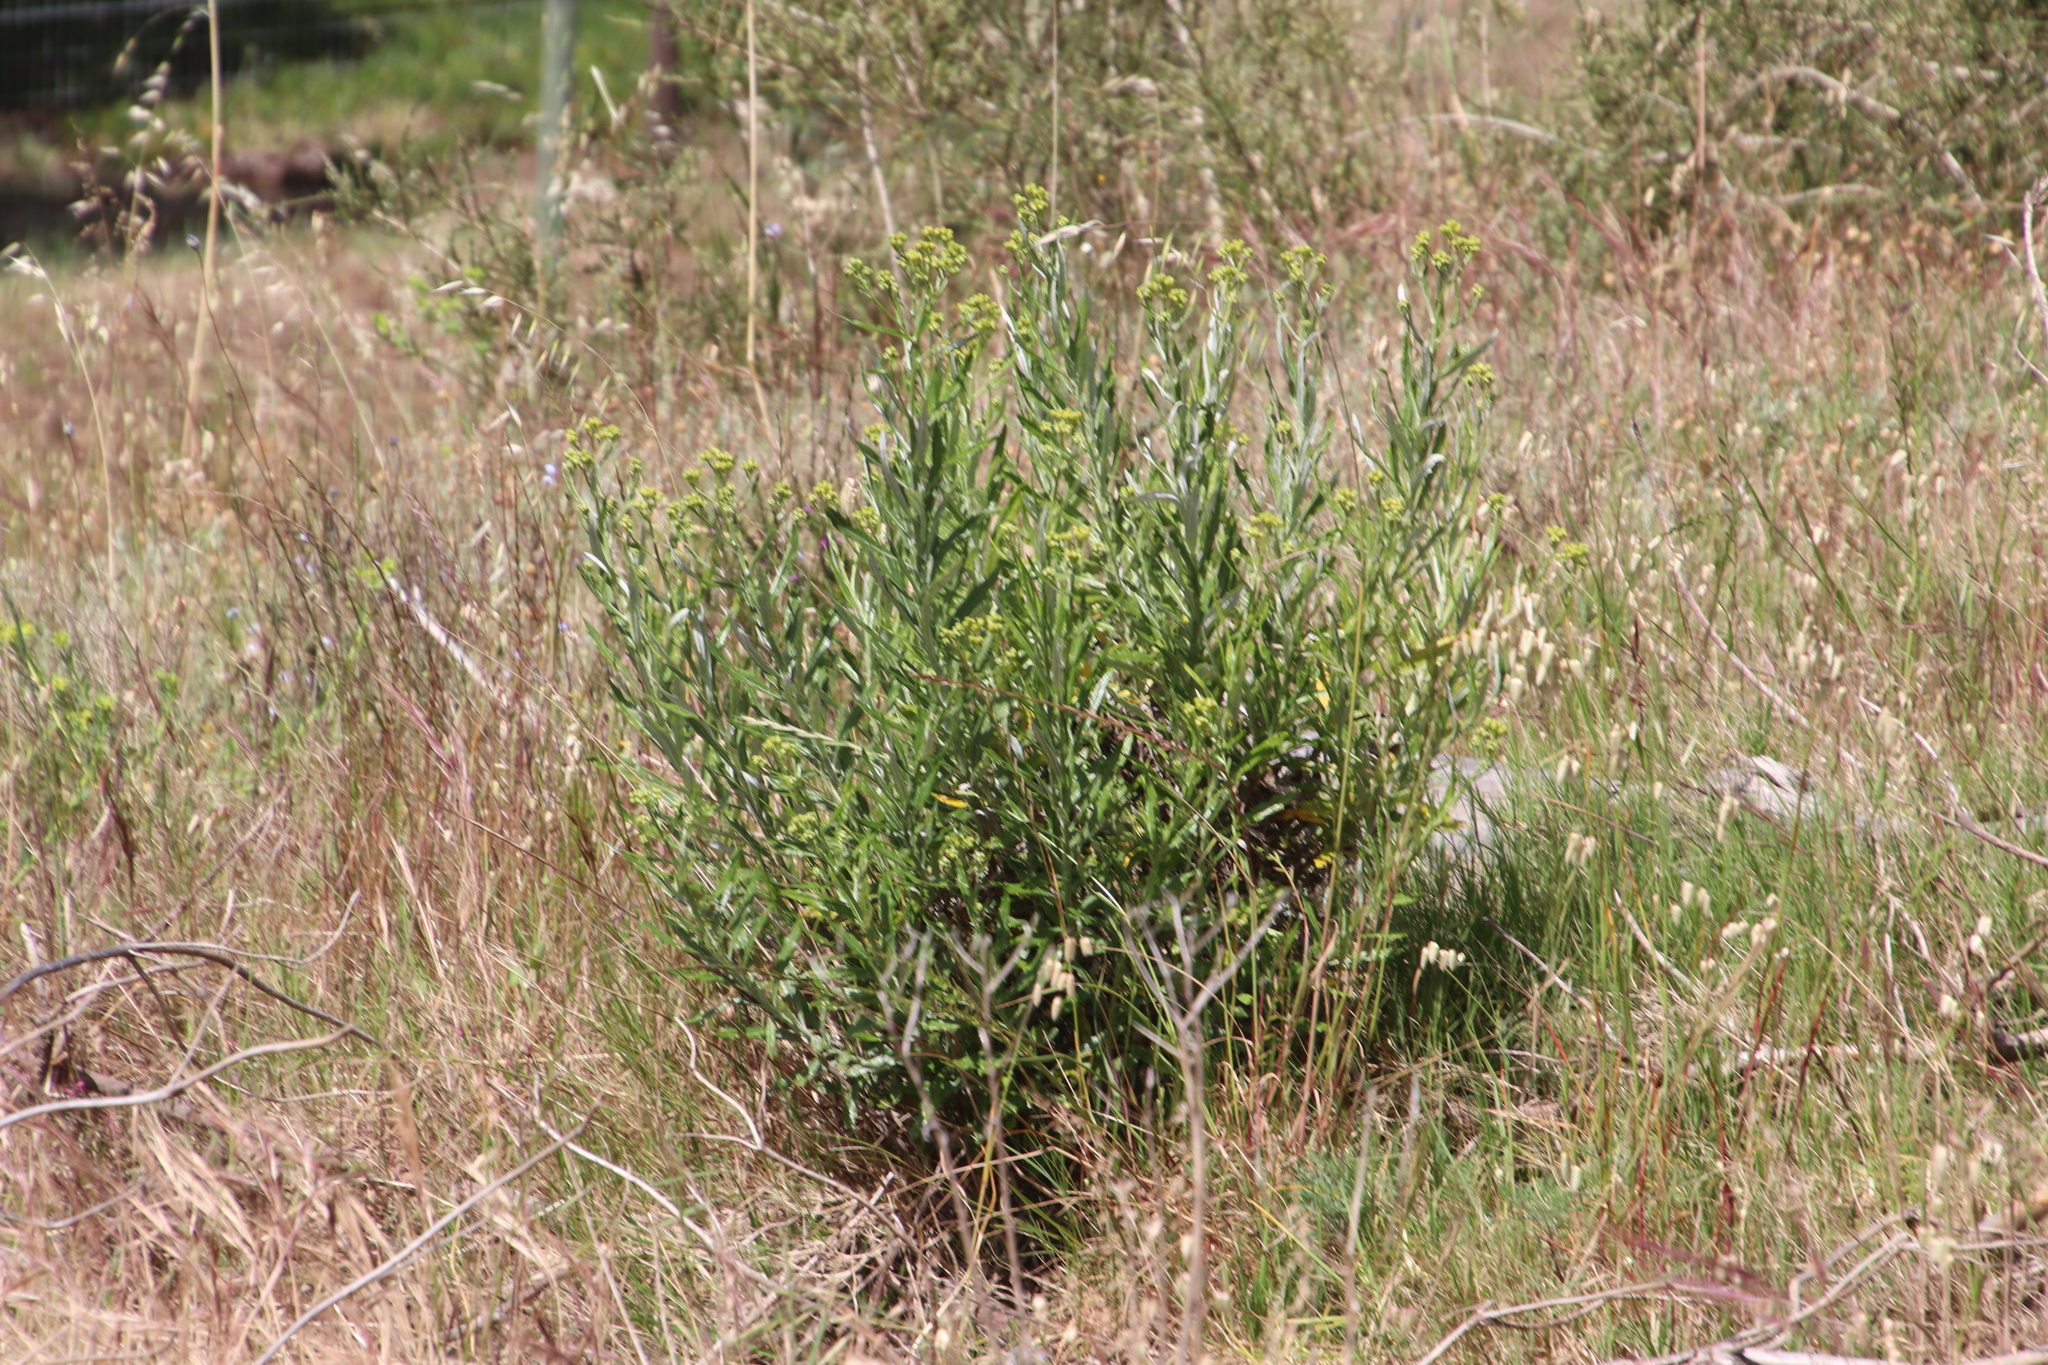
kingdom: Plantae
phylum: Tracheophyta
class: Magnoliopsida
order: Asterales
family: Asteraceae
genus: Senecio
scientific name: Senecio pterophorus
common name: Shoddy ragwort
